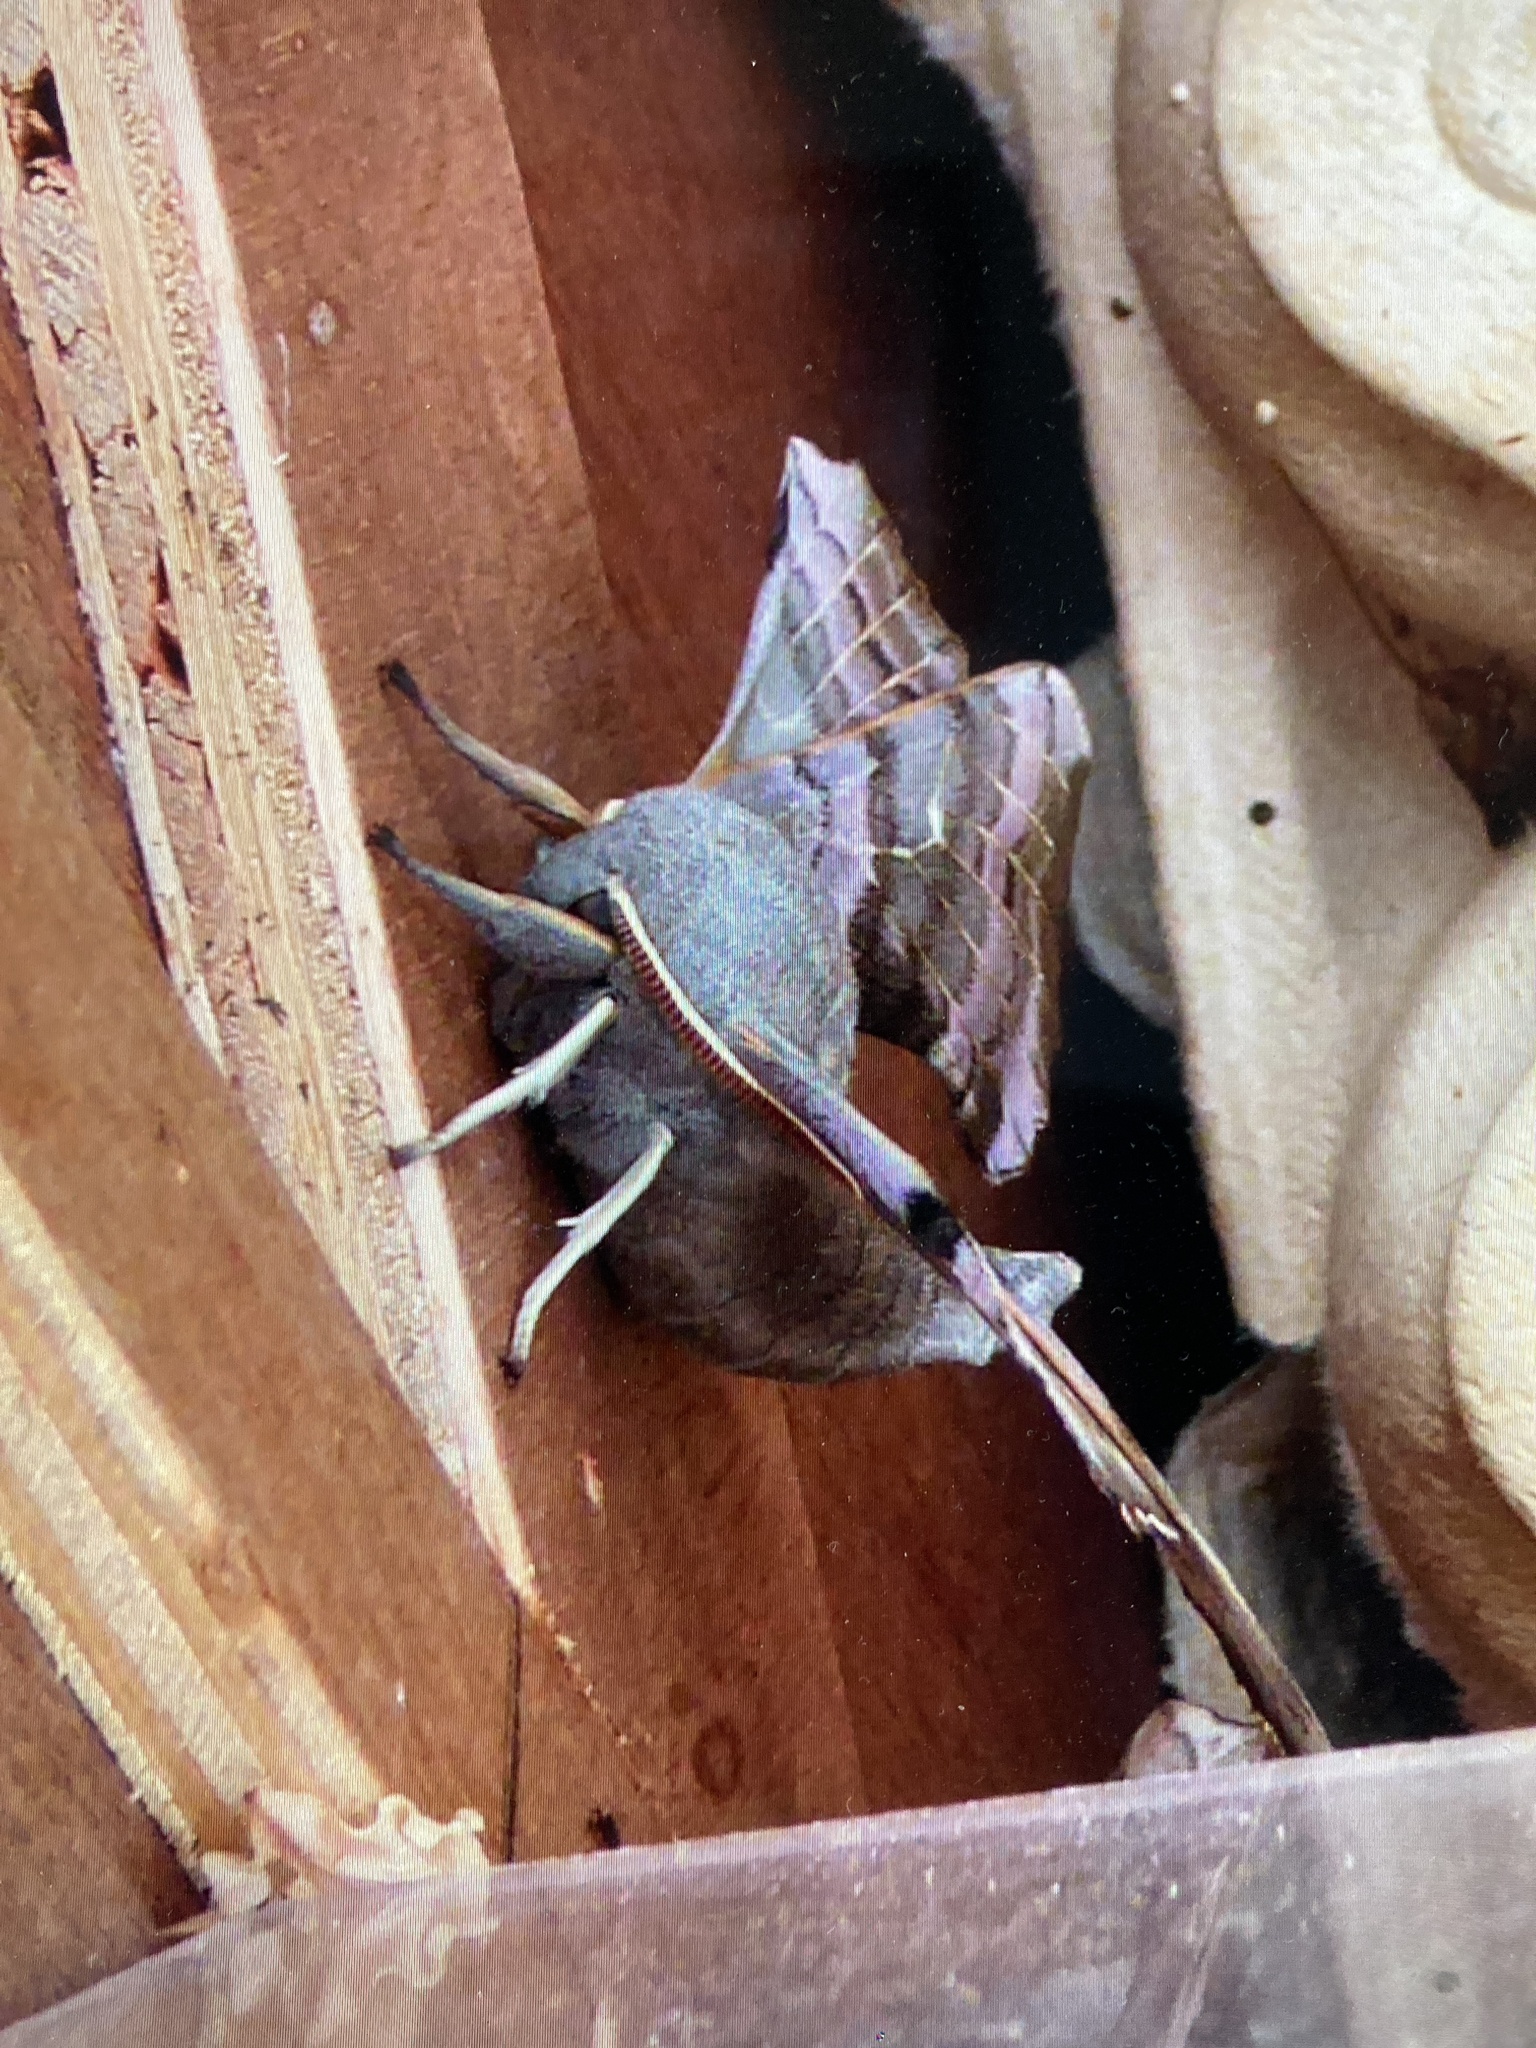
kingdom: Animalia
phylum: Arthropoda
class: Insecta
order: Lepidoptera
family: Sphingidae
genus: Laothoe
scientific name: Laothoe populi
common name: Poplar hawk-moth
